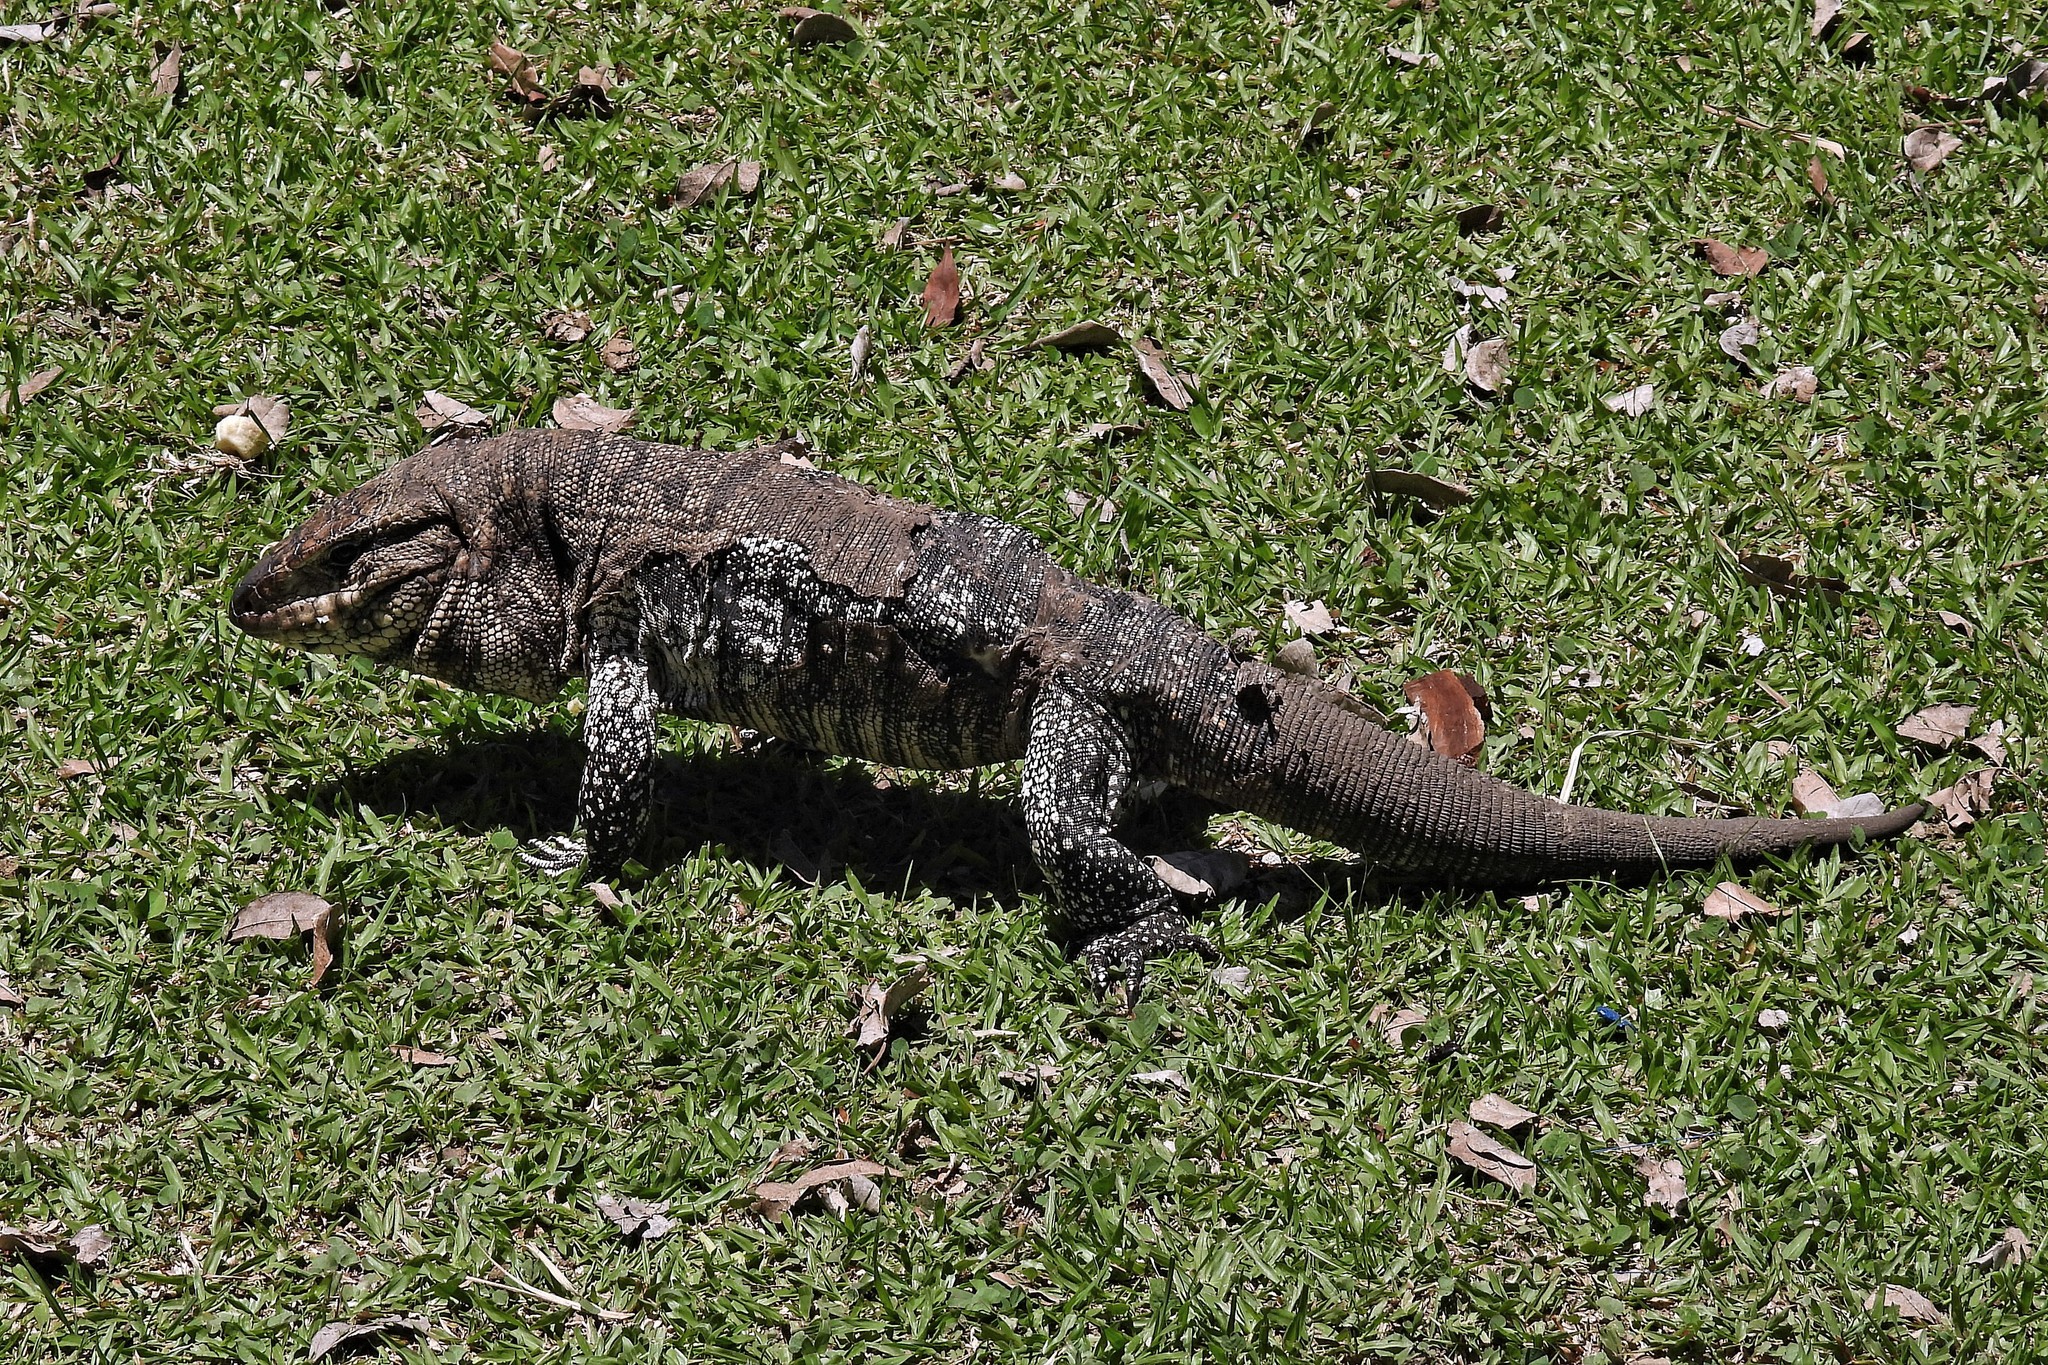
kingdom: Animalia
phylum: Chordata
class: Squamata
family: Teiidae
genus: Salvator
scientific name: Salvator merianae
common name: Argentine black and white tegu
